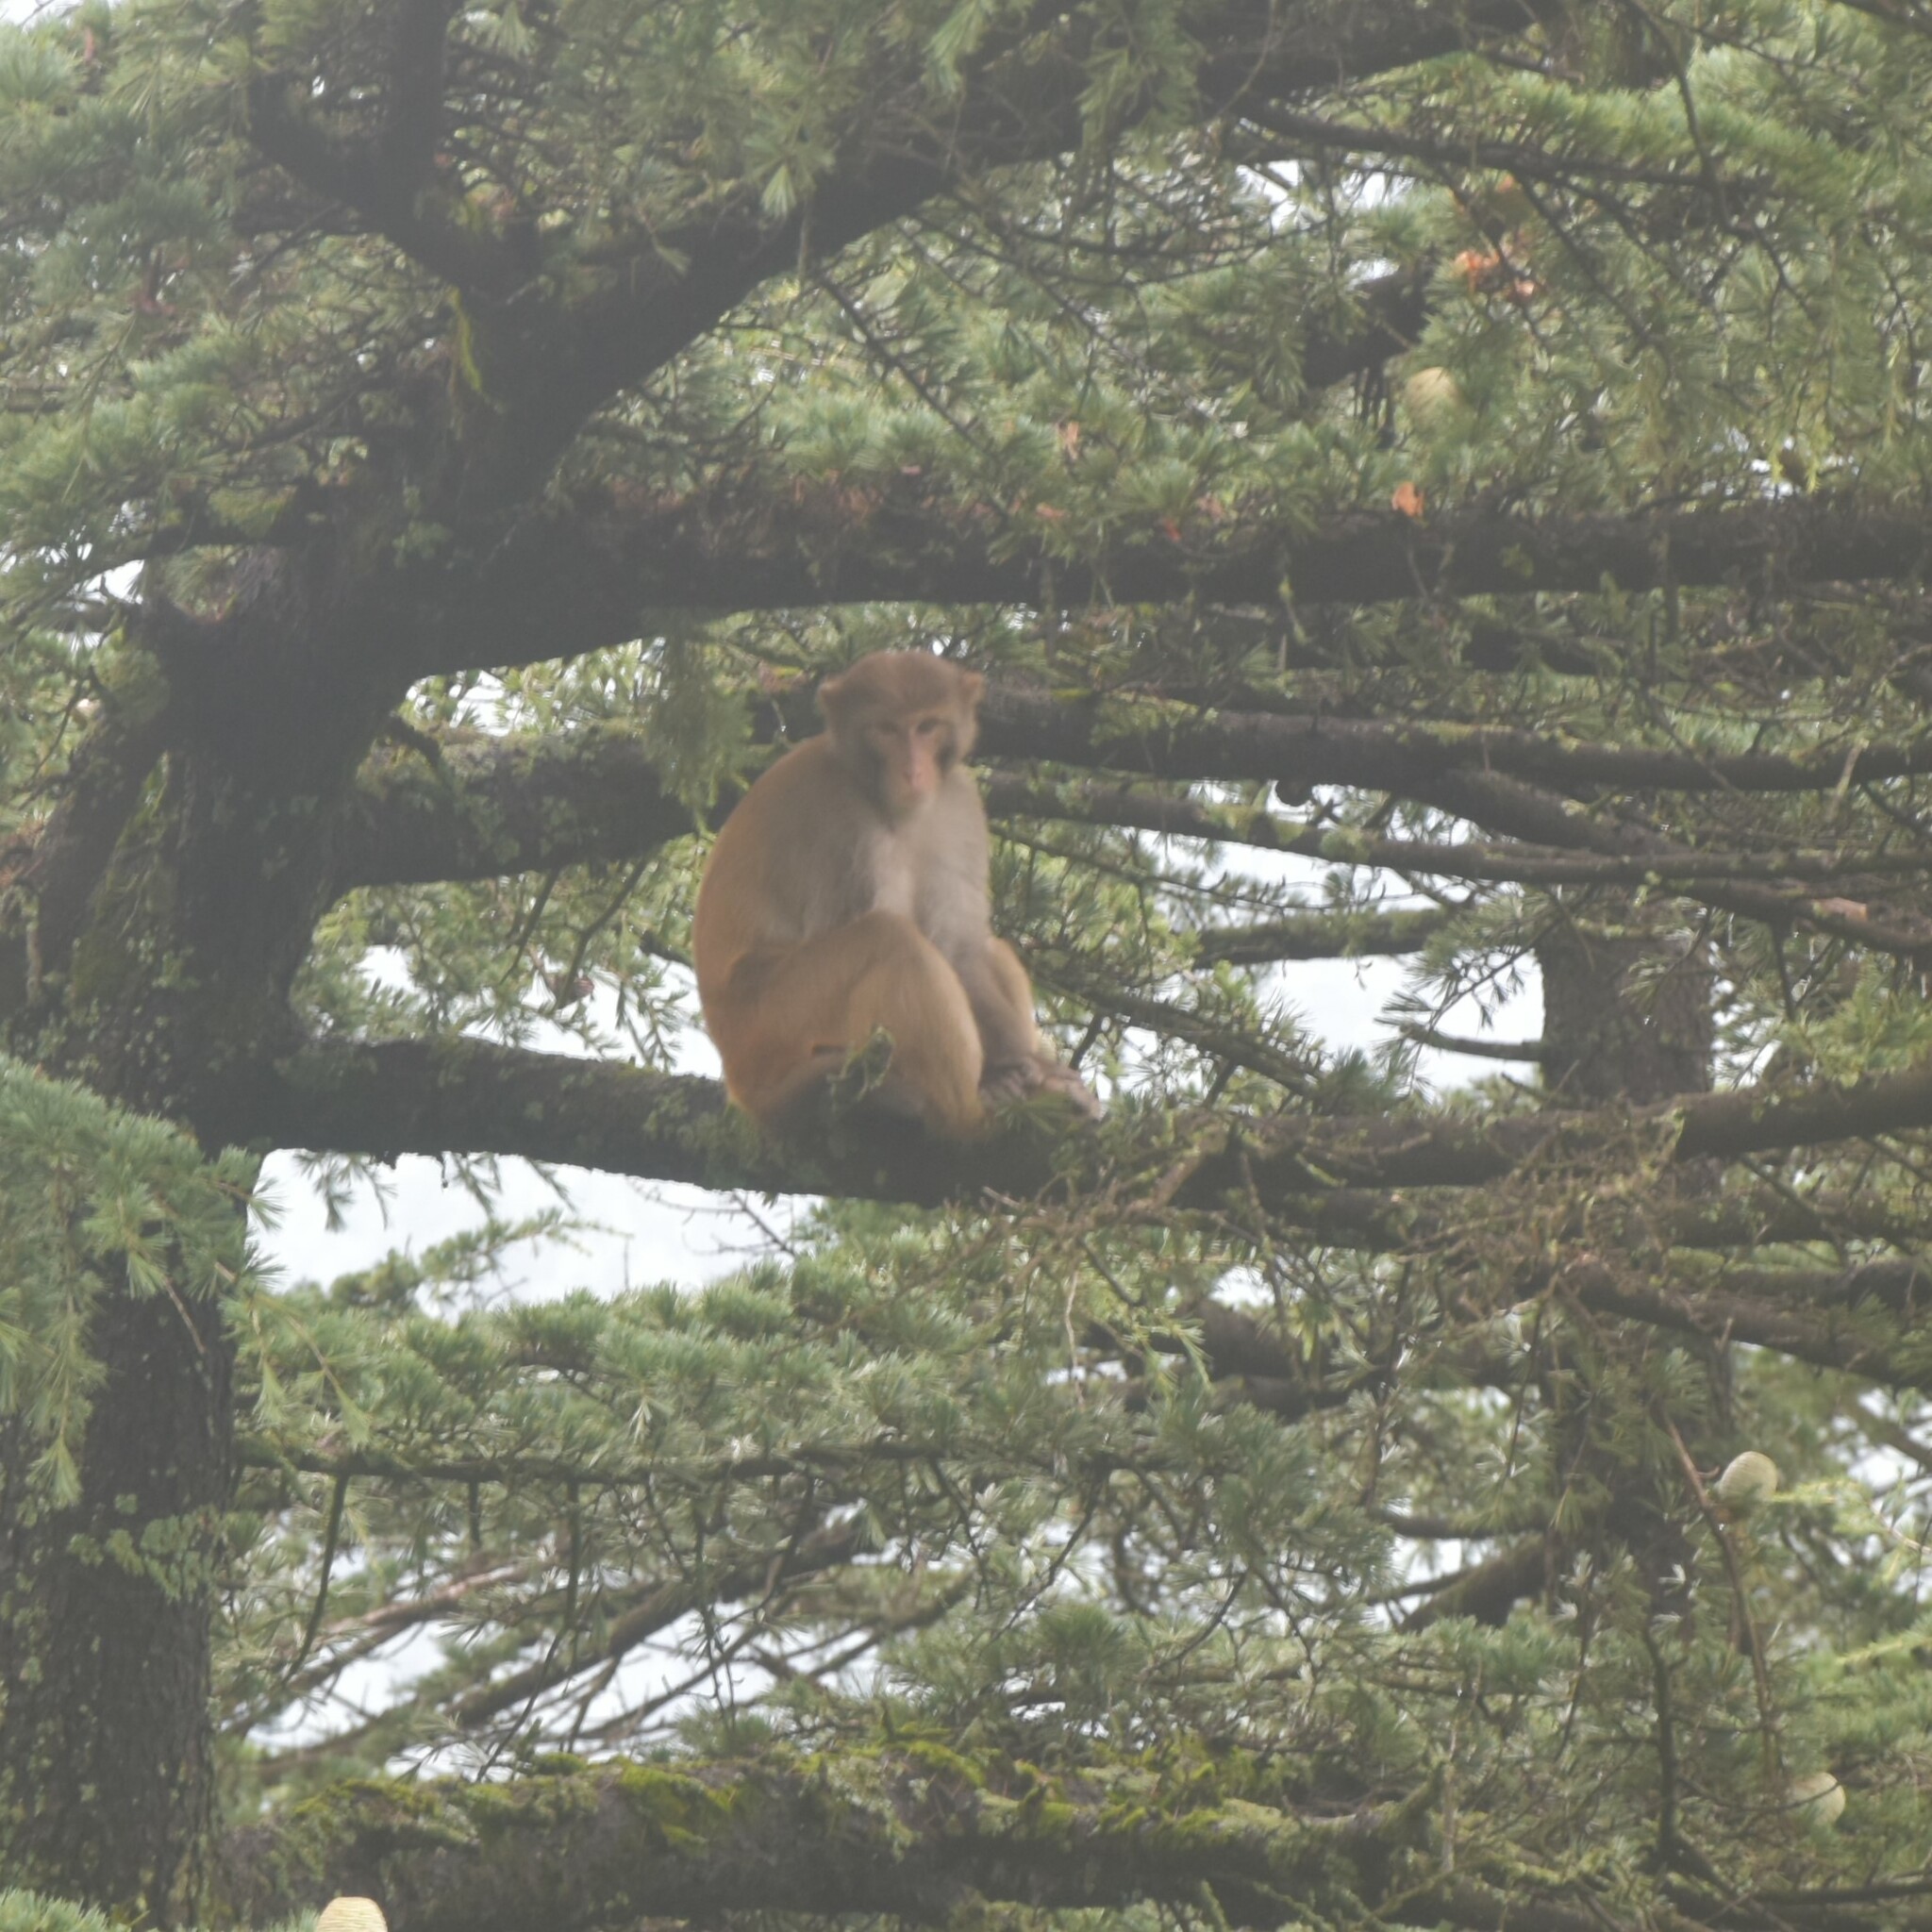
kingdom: Animalia
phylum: Chordata
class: Mammalia
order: Primates
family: Cercopithecidae
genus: Macaca
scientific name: Macaca mulatta
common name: Rhesus monkey
